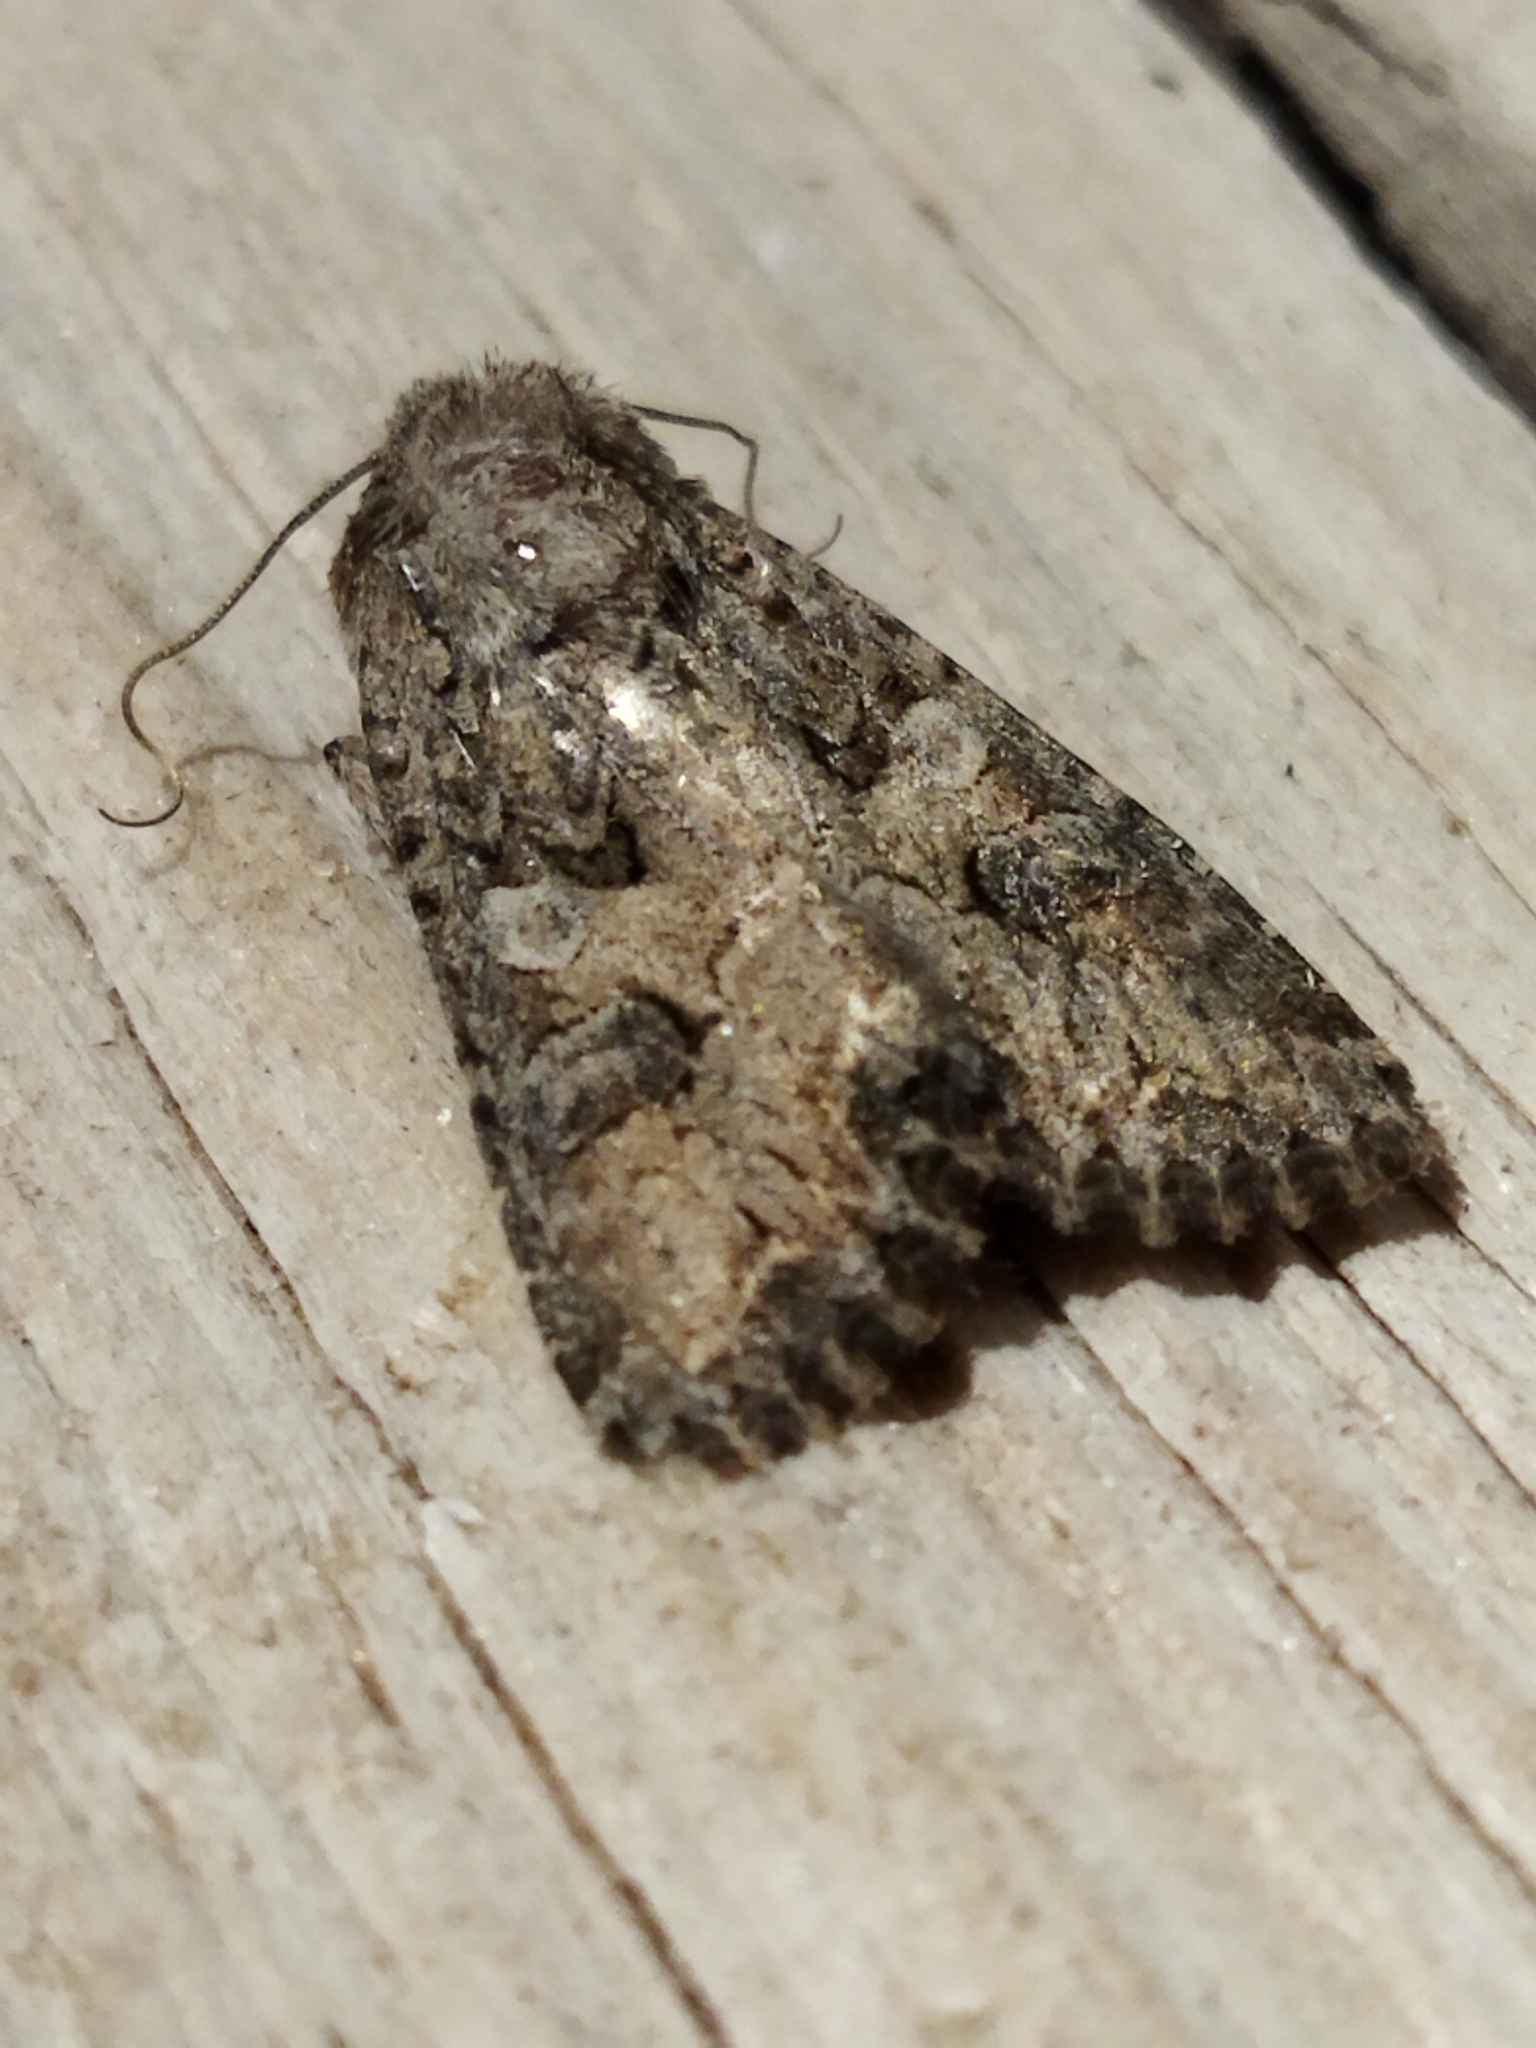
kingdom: Animalia
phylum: Arthropoda
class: Insecta
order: Lepidoptera
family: Noctuidae
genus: Anarta
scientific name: Anarta trifolii
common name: Clover cutworm moth
